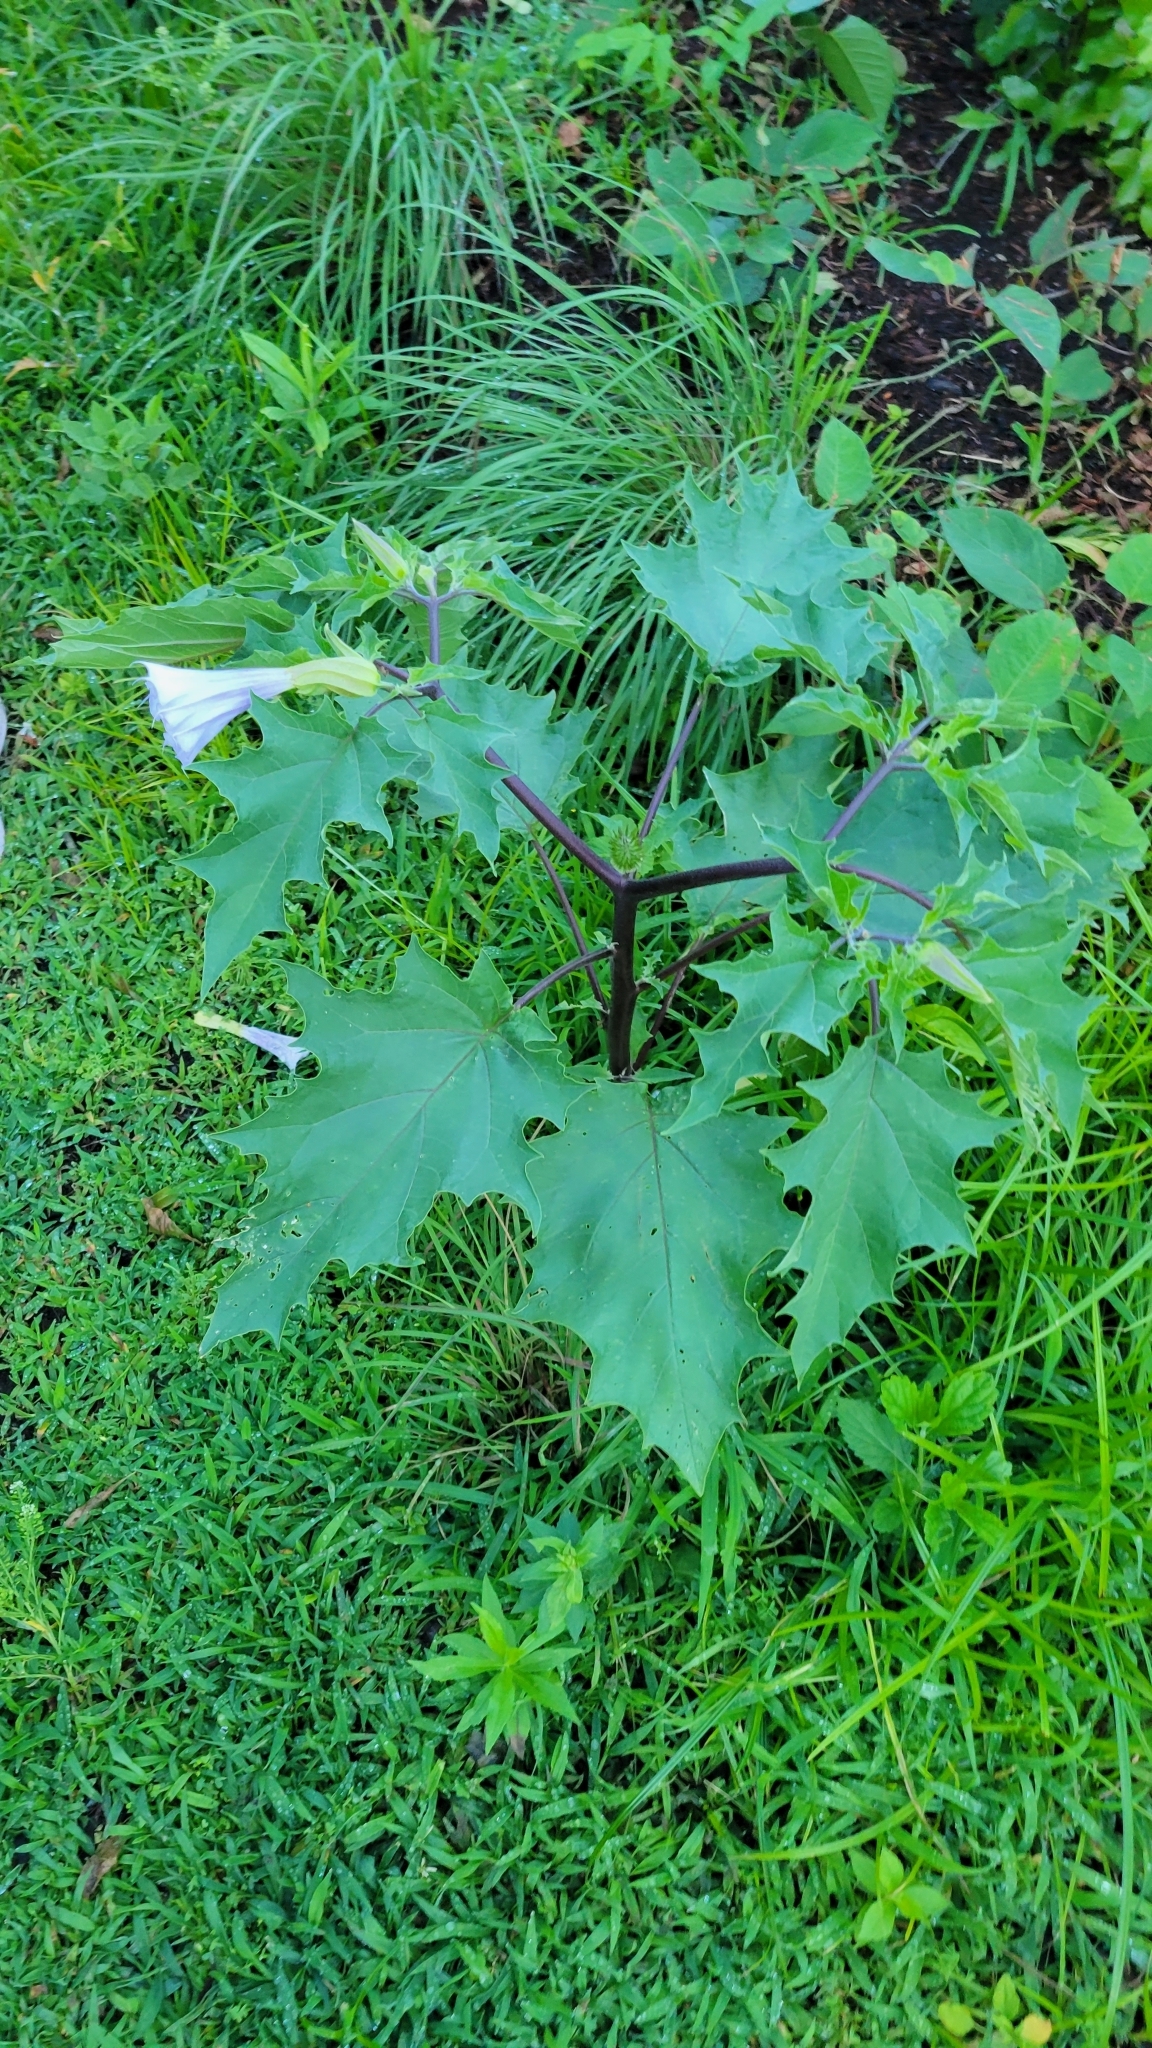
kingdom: Plantae
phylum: Tracheophyta
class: Magnoliopsida
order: Solanales
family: Solanaceae
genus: Datura
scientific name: Datura stramonium
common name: Thorn-apple
